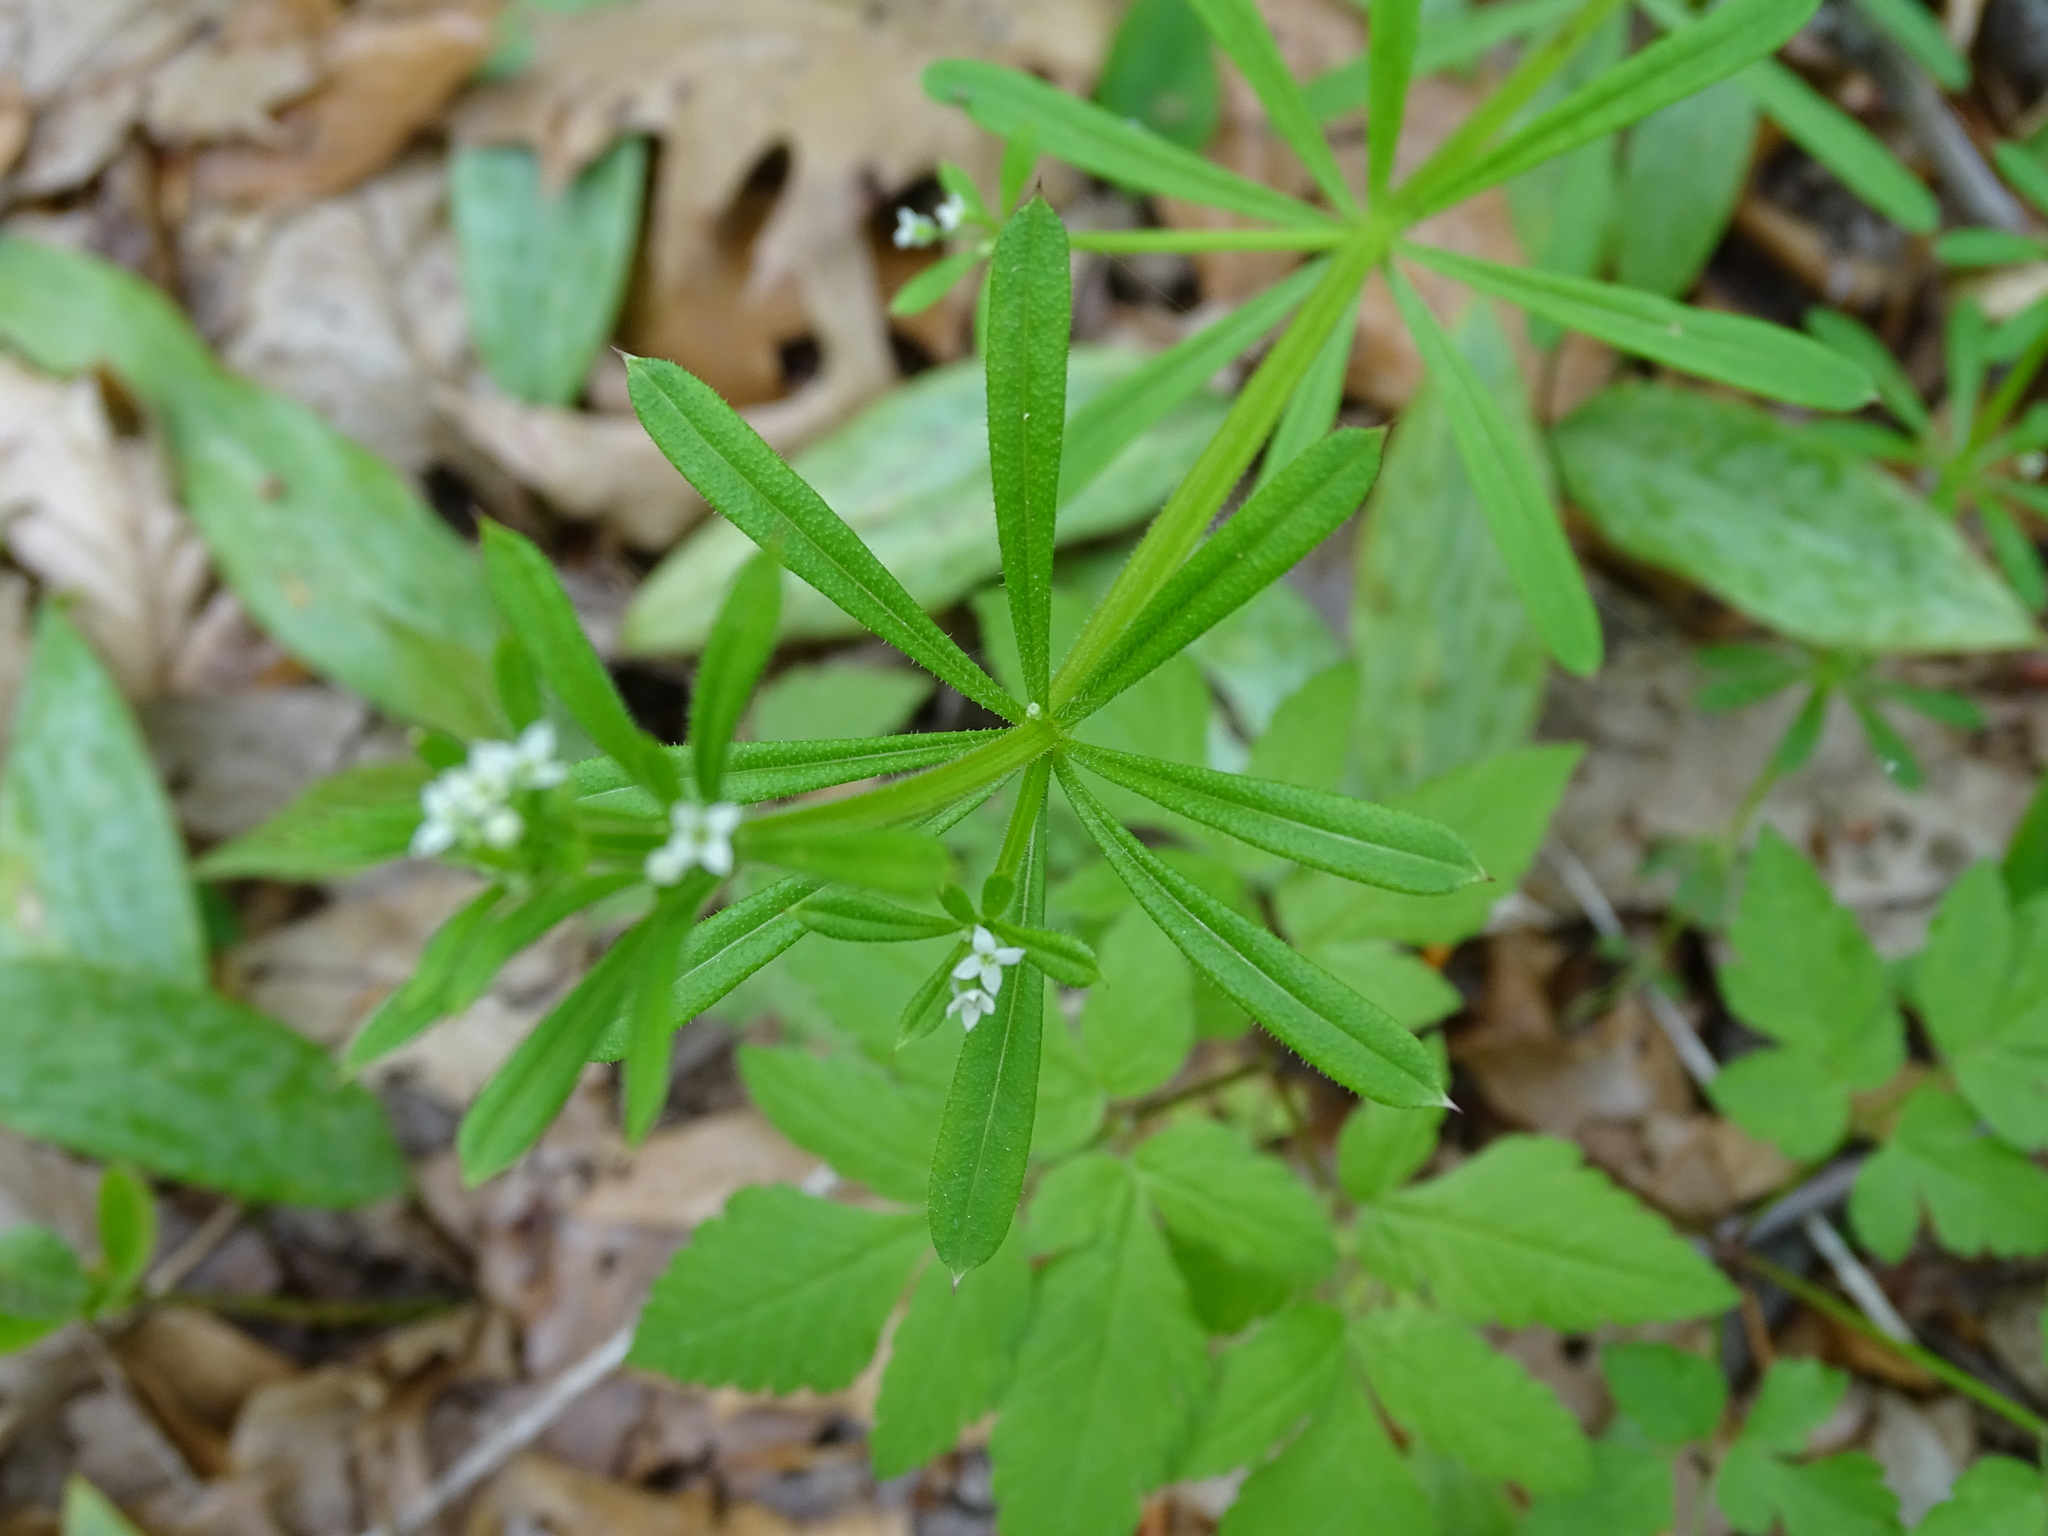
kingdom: Plantae
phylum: Tracheophyta
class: Magnoliopsida
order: Gentianales
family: Rubiaceae
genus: Galium
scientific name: Galium aparine
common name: Cleavers
